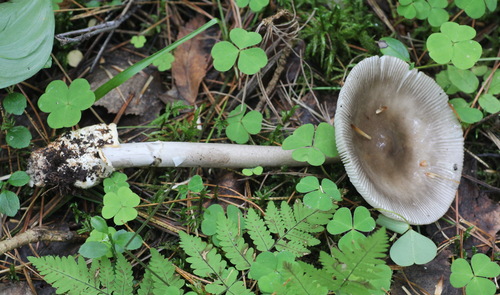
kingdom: Fungi
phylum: Basidiomycota
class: Agaricomycetes
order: Agaricales
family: Amanitaceae
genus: Amanita
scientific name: Amanita battarrae
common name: Banded amanita
